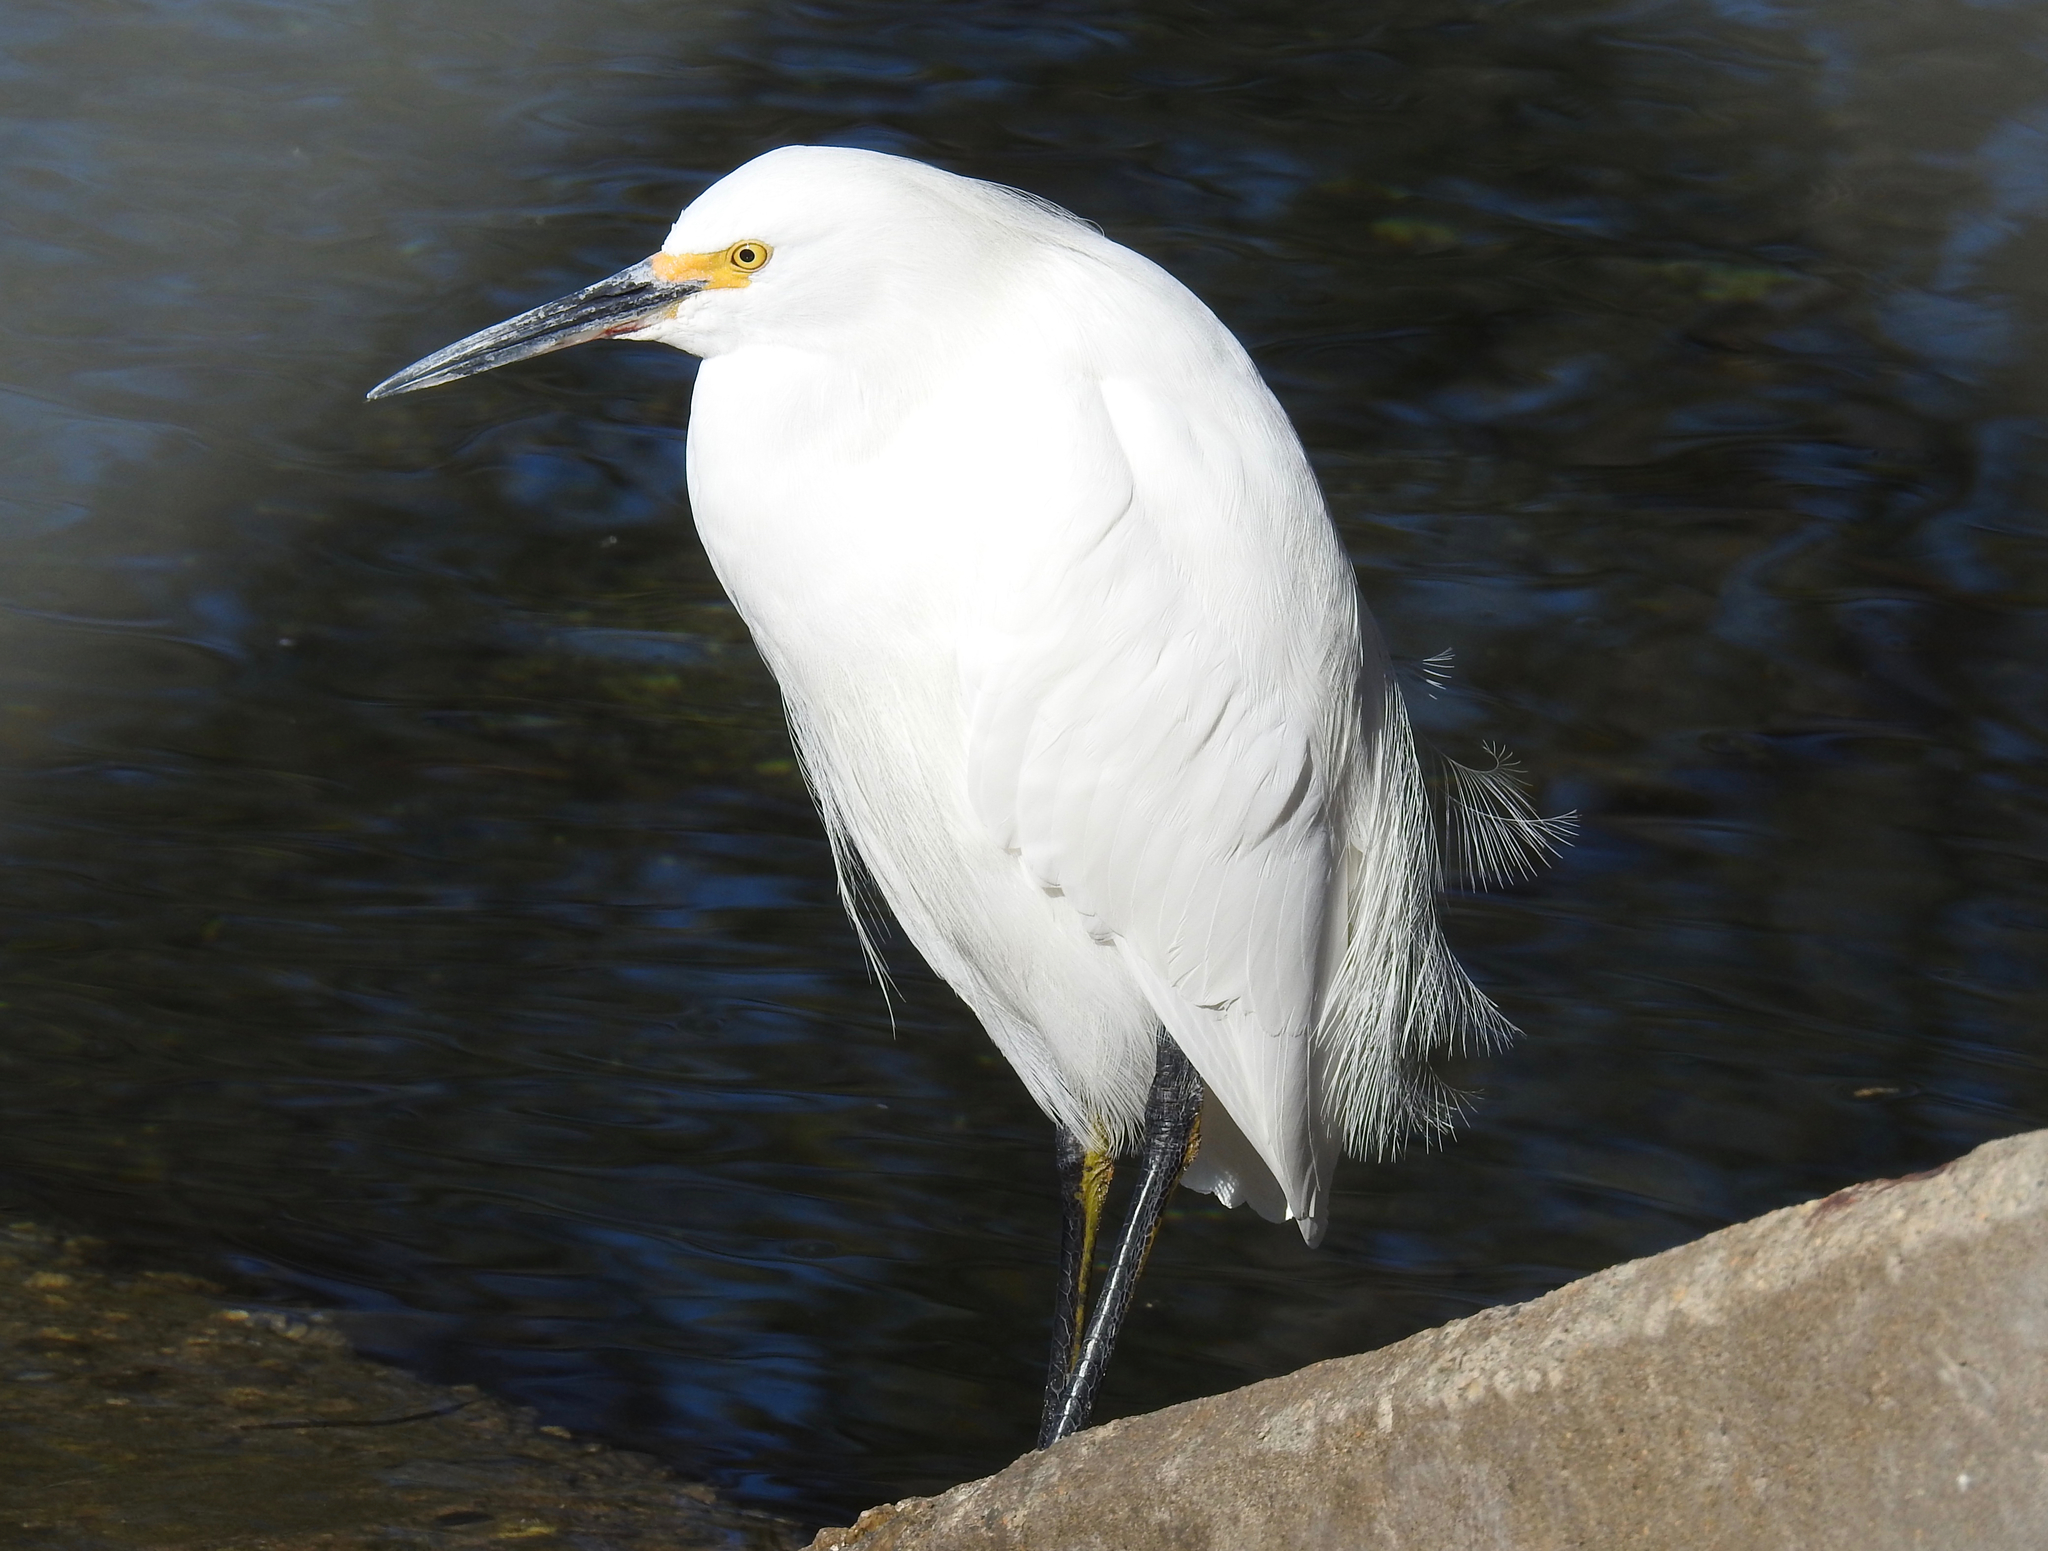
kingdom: Animalia
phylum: Chordata
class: Aves
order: Pelecaniformes
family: Ardeidae
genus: Egretta
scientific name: Egretta thula
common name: Snowy egret
